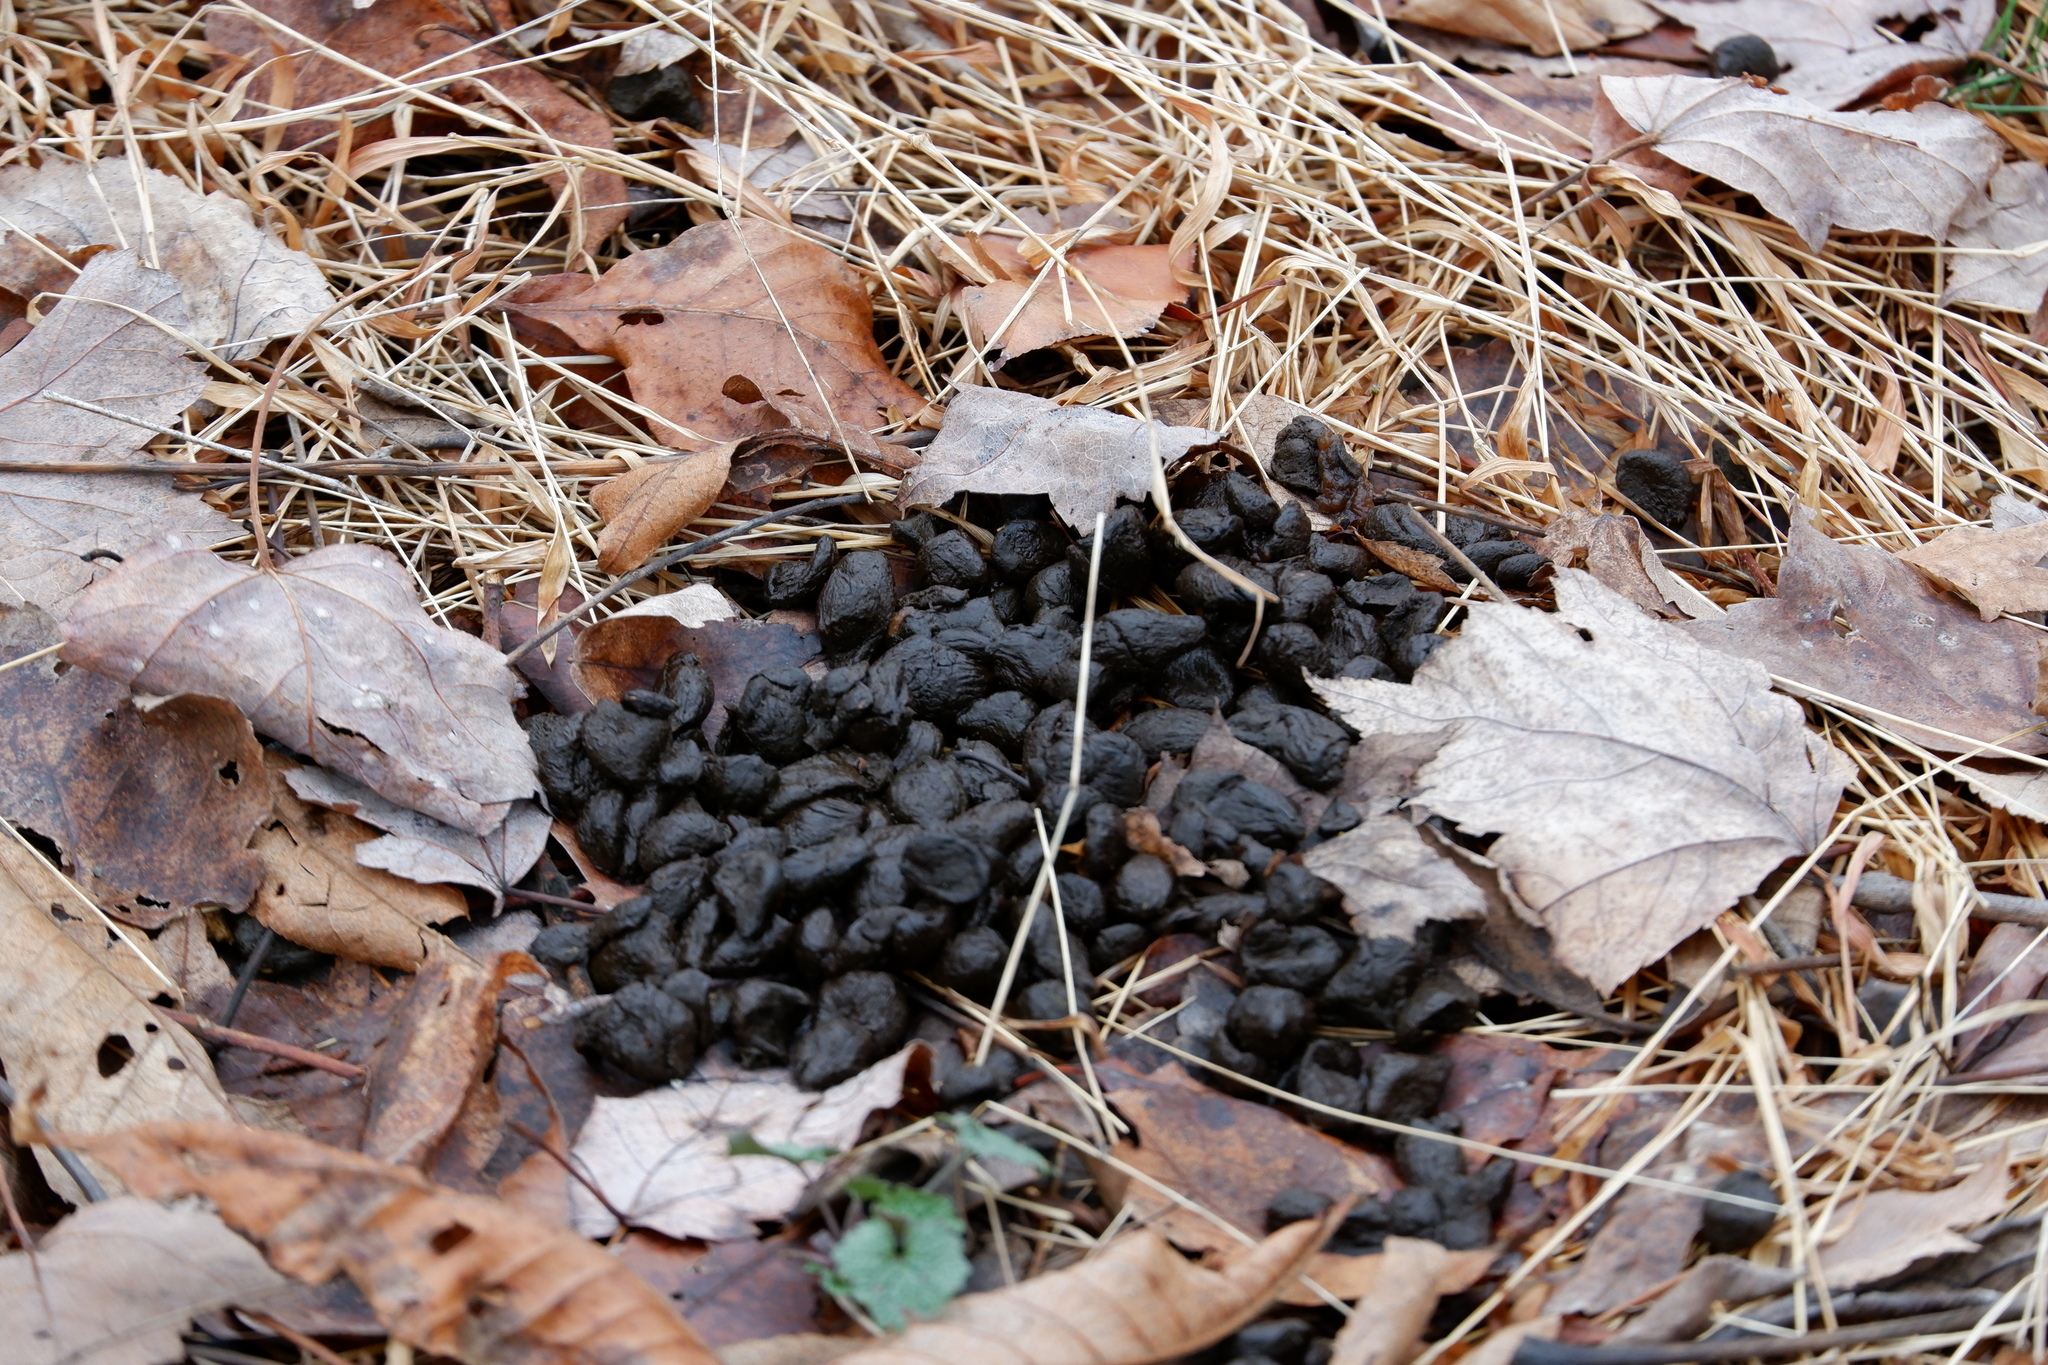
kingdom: Animalia
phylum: Chordata
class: Mammalia
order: Artiodactyla
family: Cervidae
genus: Odocoileus
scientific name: Odocoileus virginianus
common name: White-tailed deer
